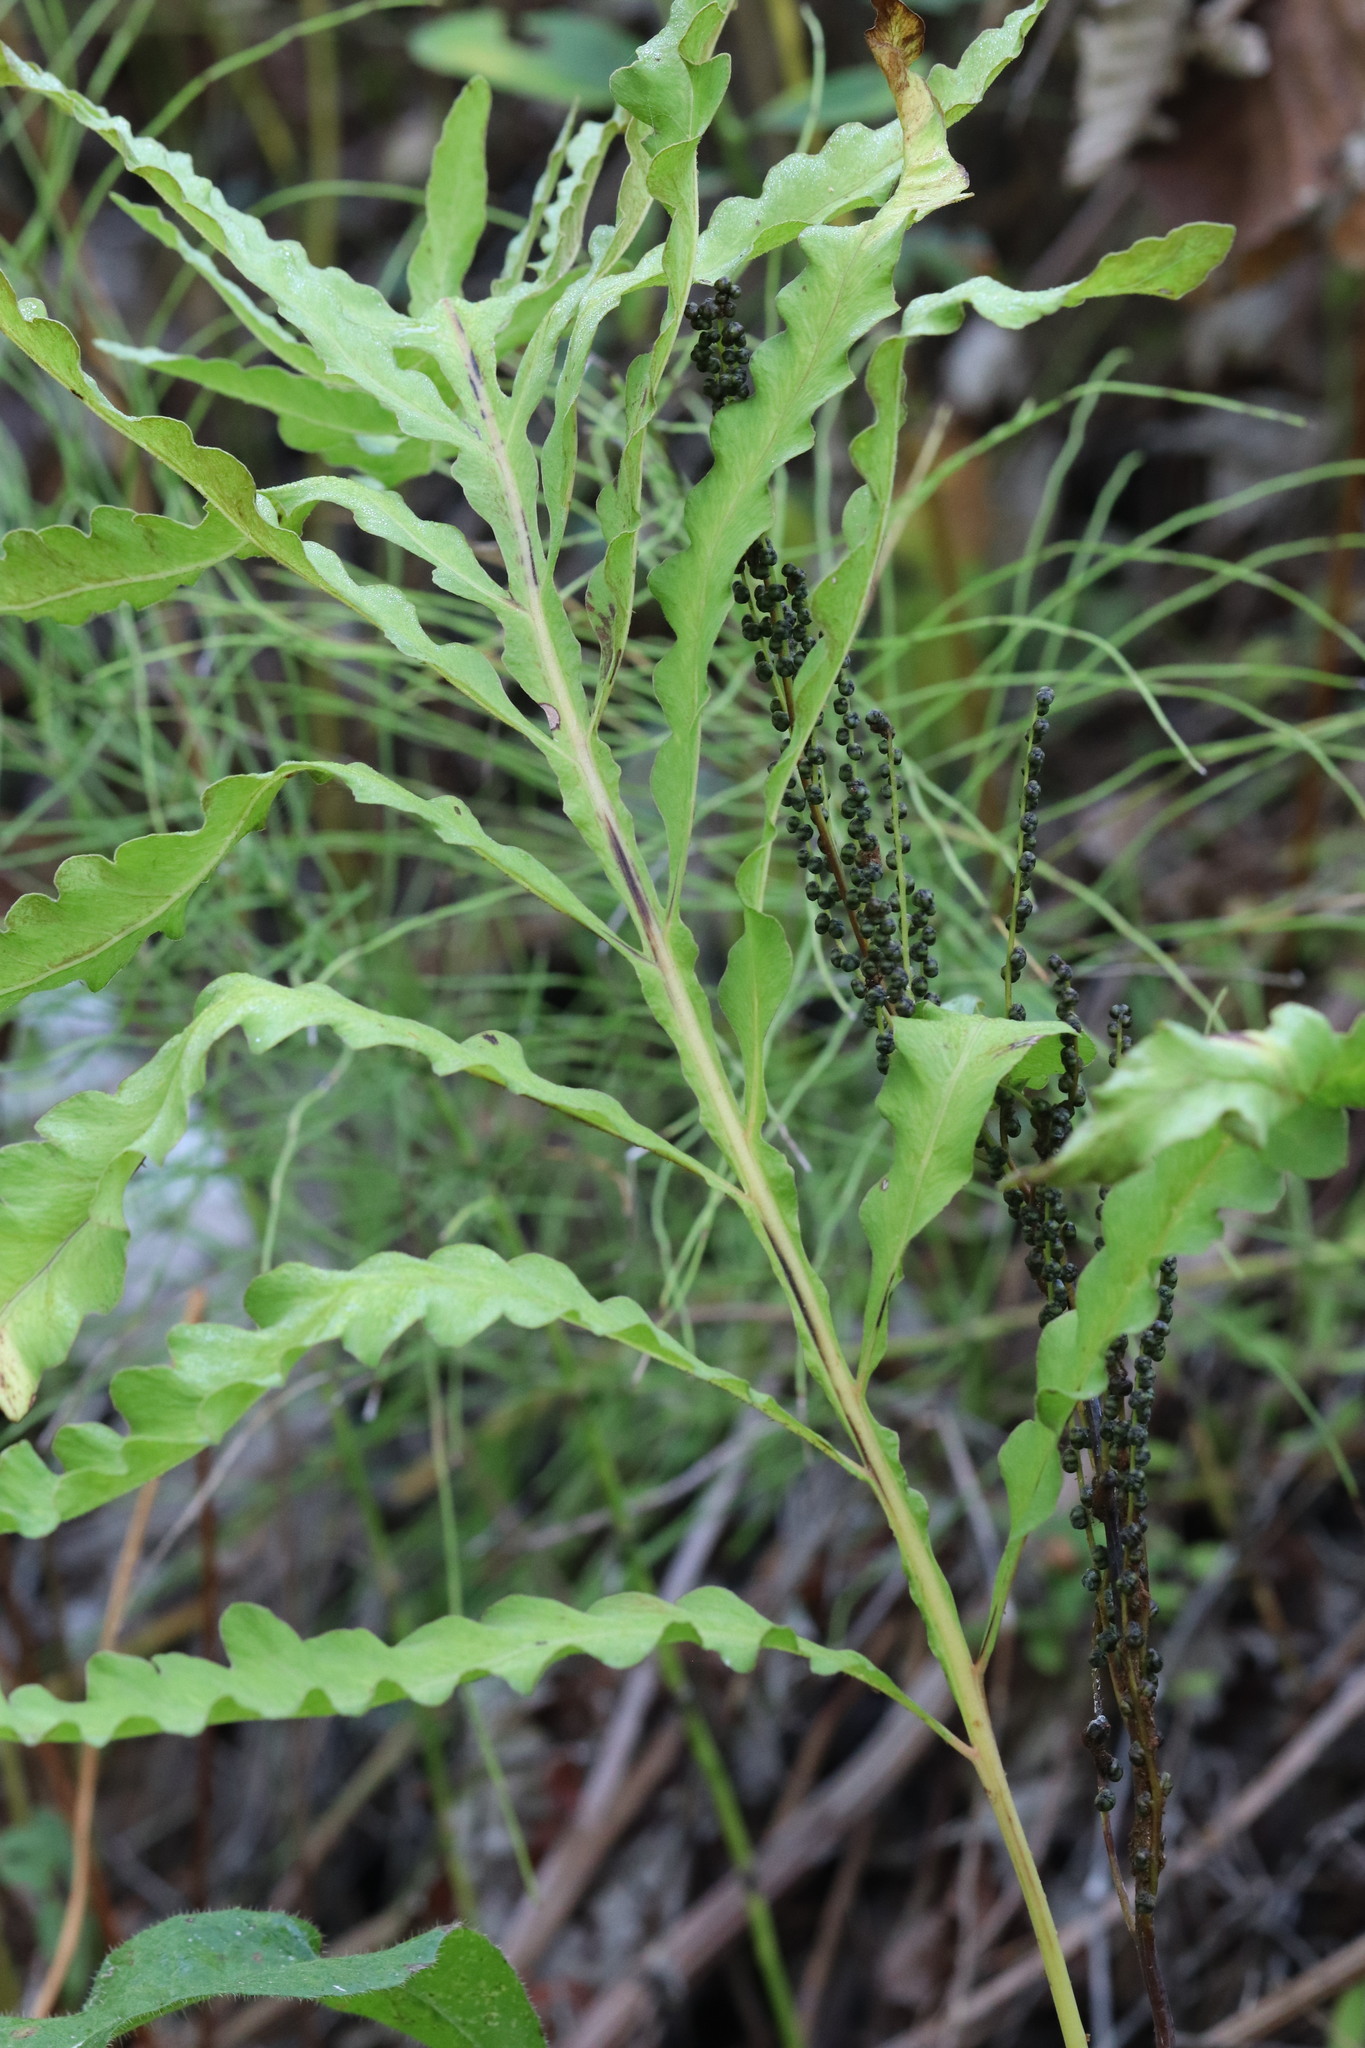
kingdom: Plantae
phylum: Tracheophyta
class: Polypodiopsida
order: Polypodiales
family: Onocleaceae
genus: Onoclea
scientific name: Onoclea sensibilis
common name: Sensitive fern
